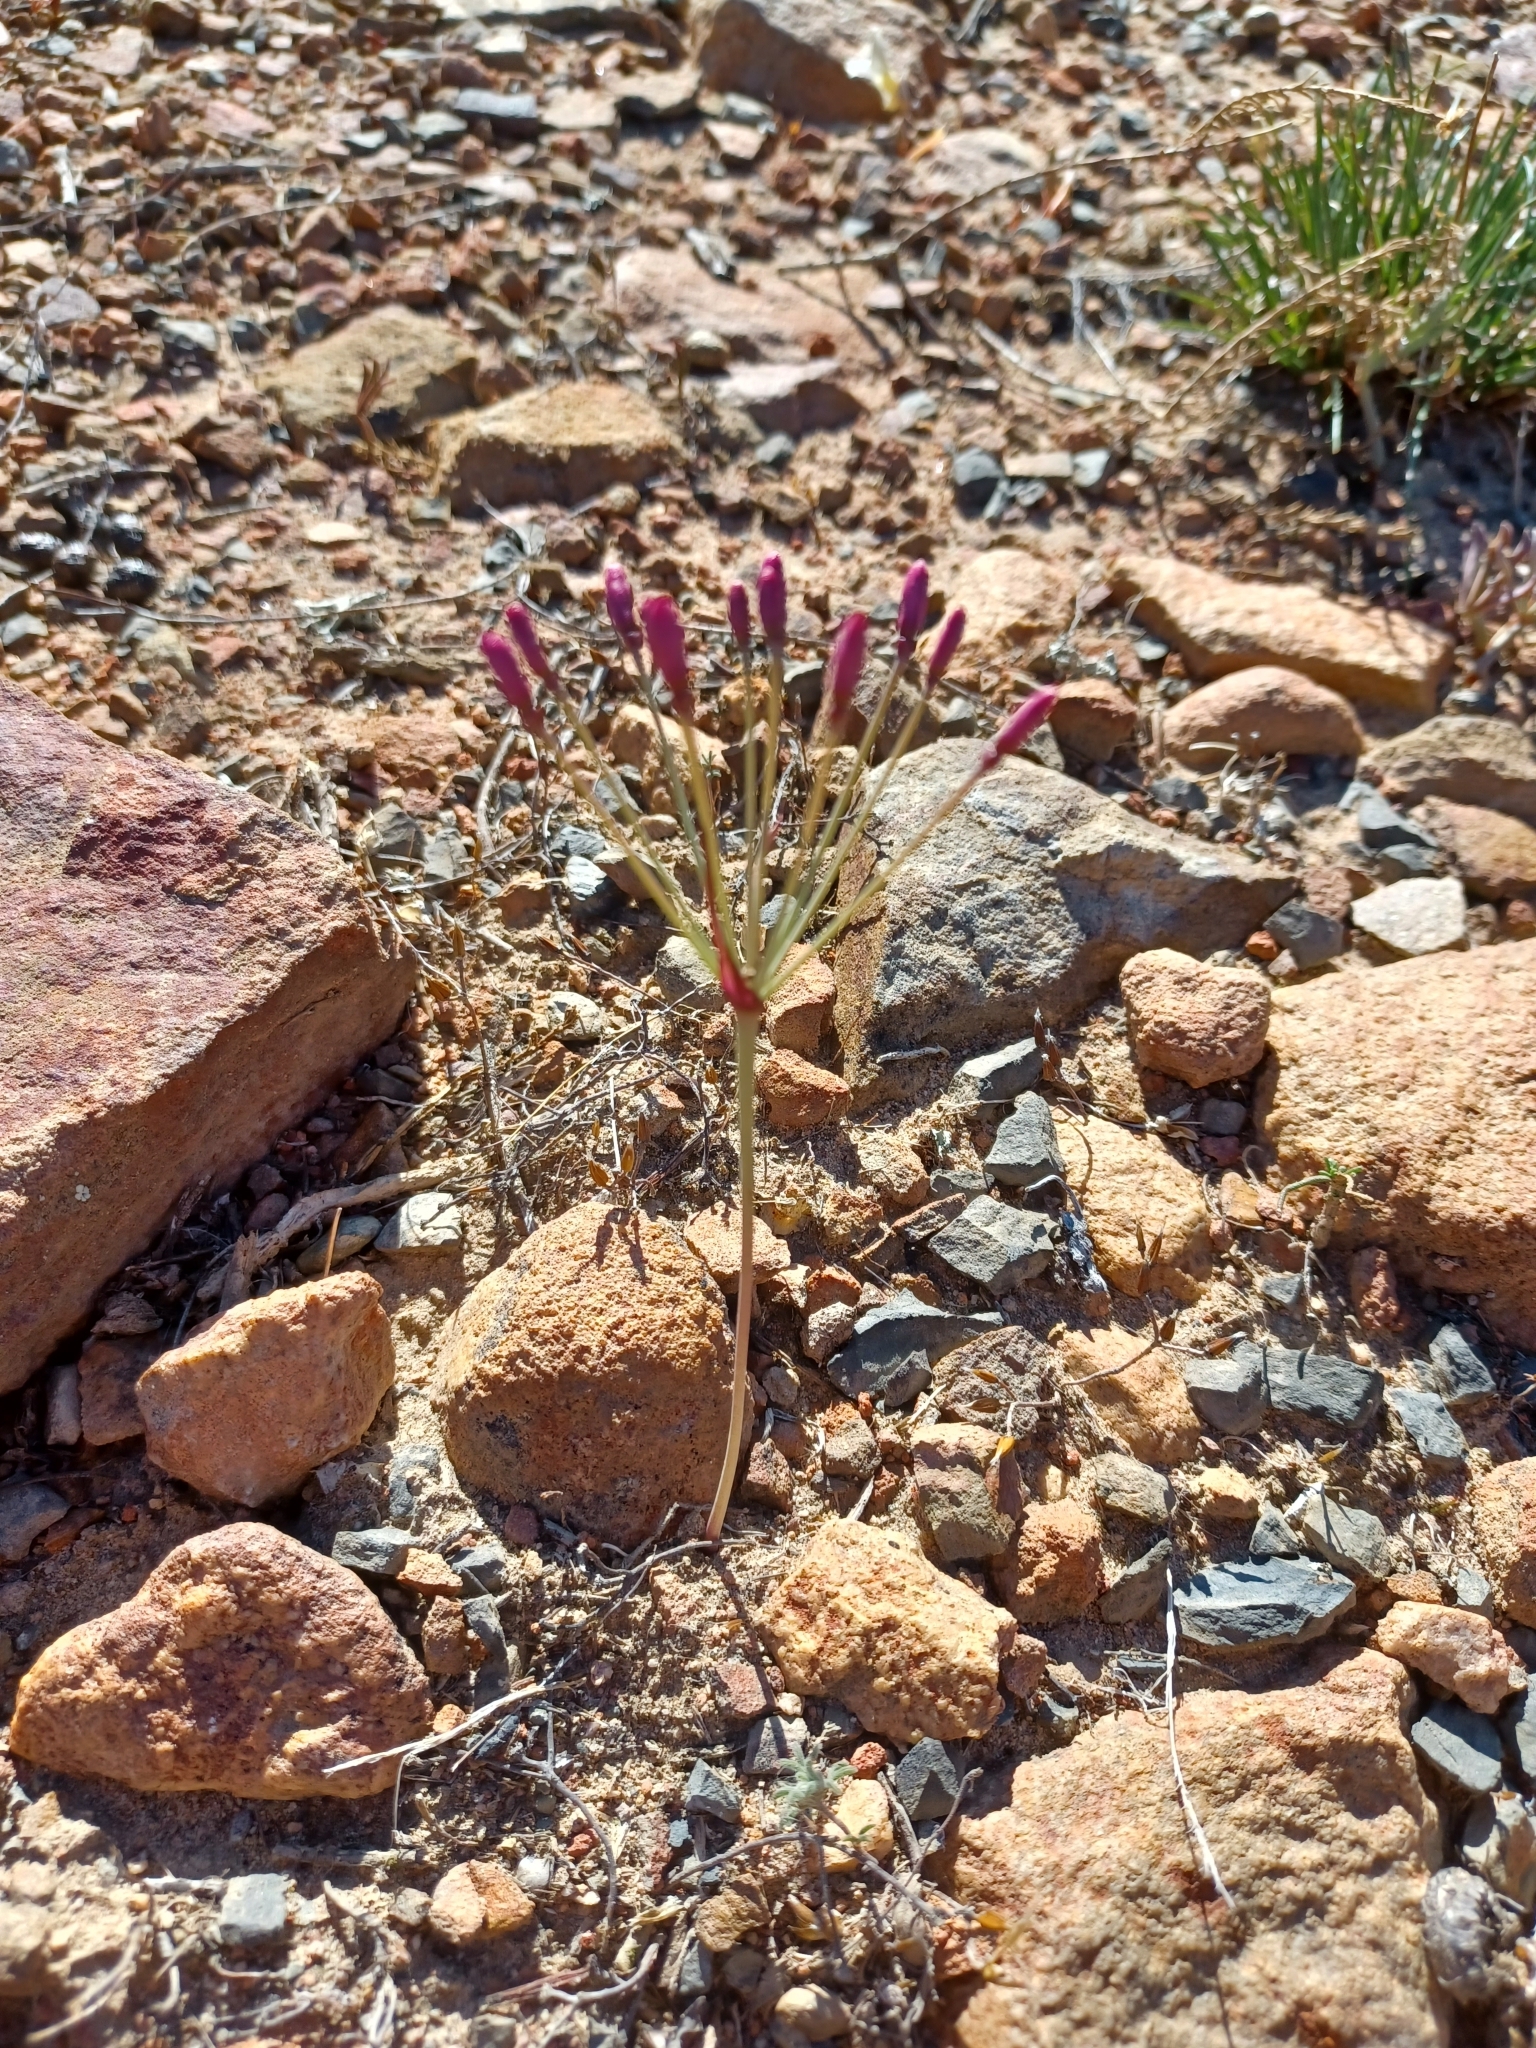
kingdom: Plantae
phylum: Tracheophyta
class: Liliopsida
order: Asparagales
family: Amaryllidaceae
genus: Hessea
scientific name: Hessea stellaris
